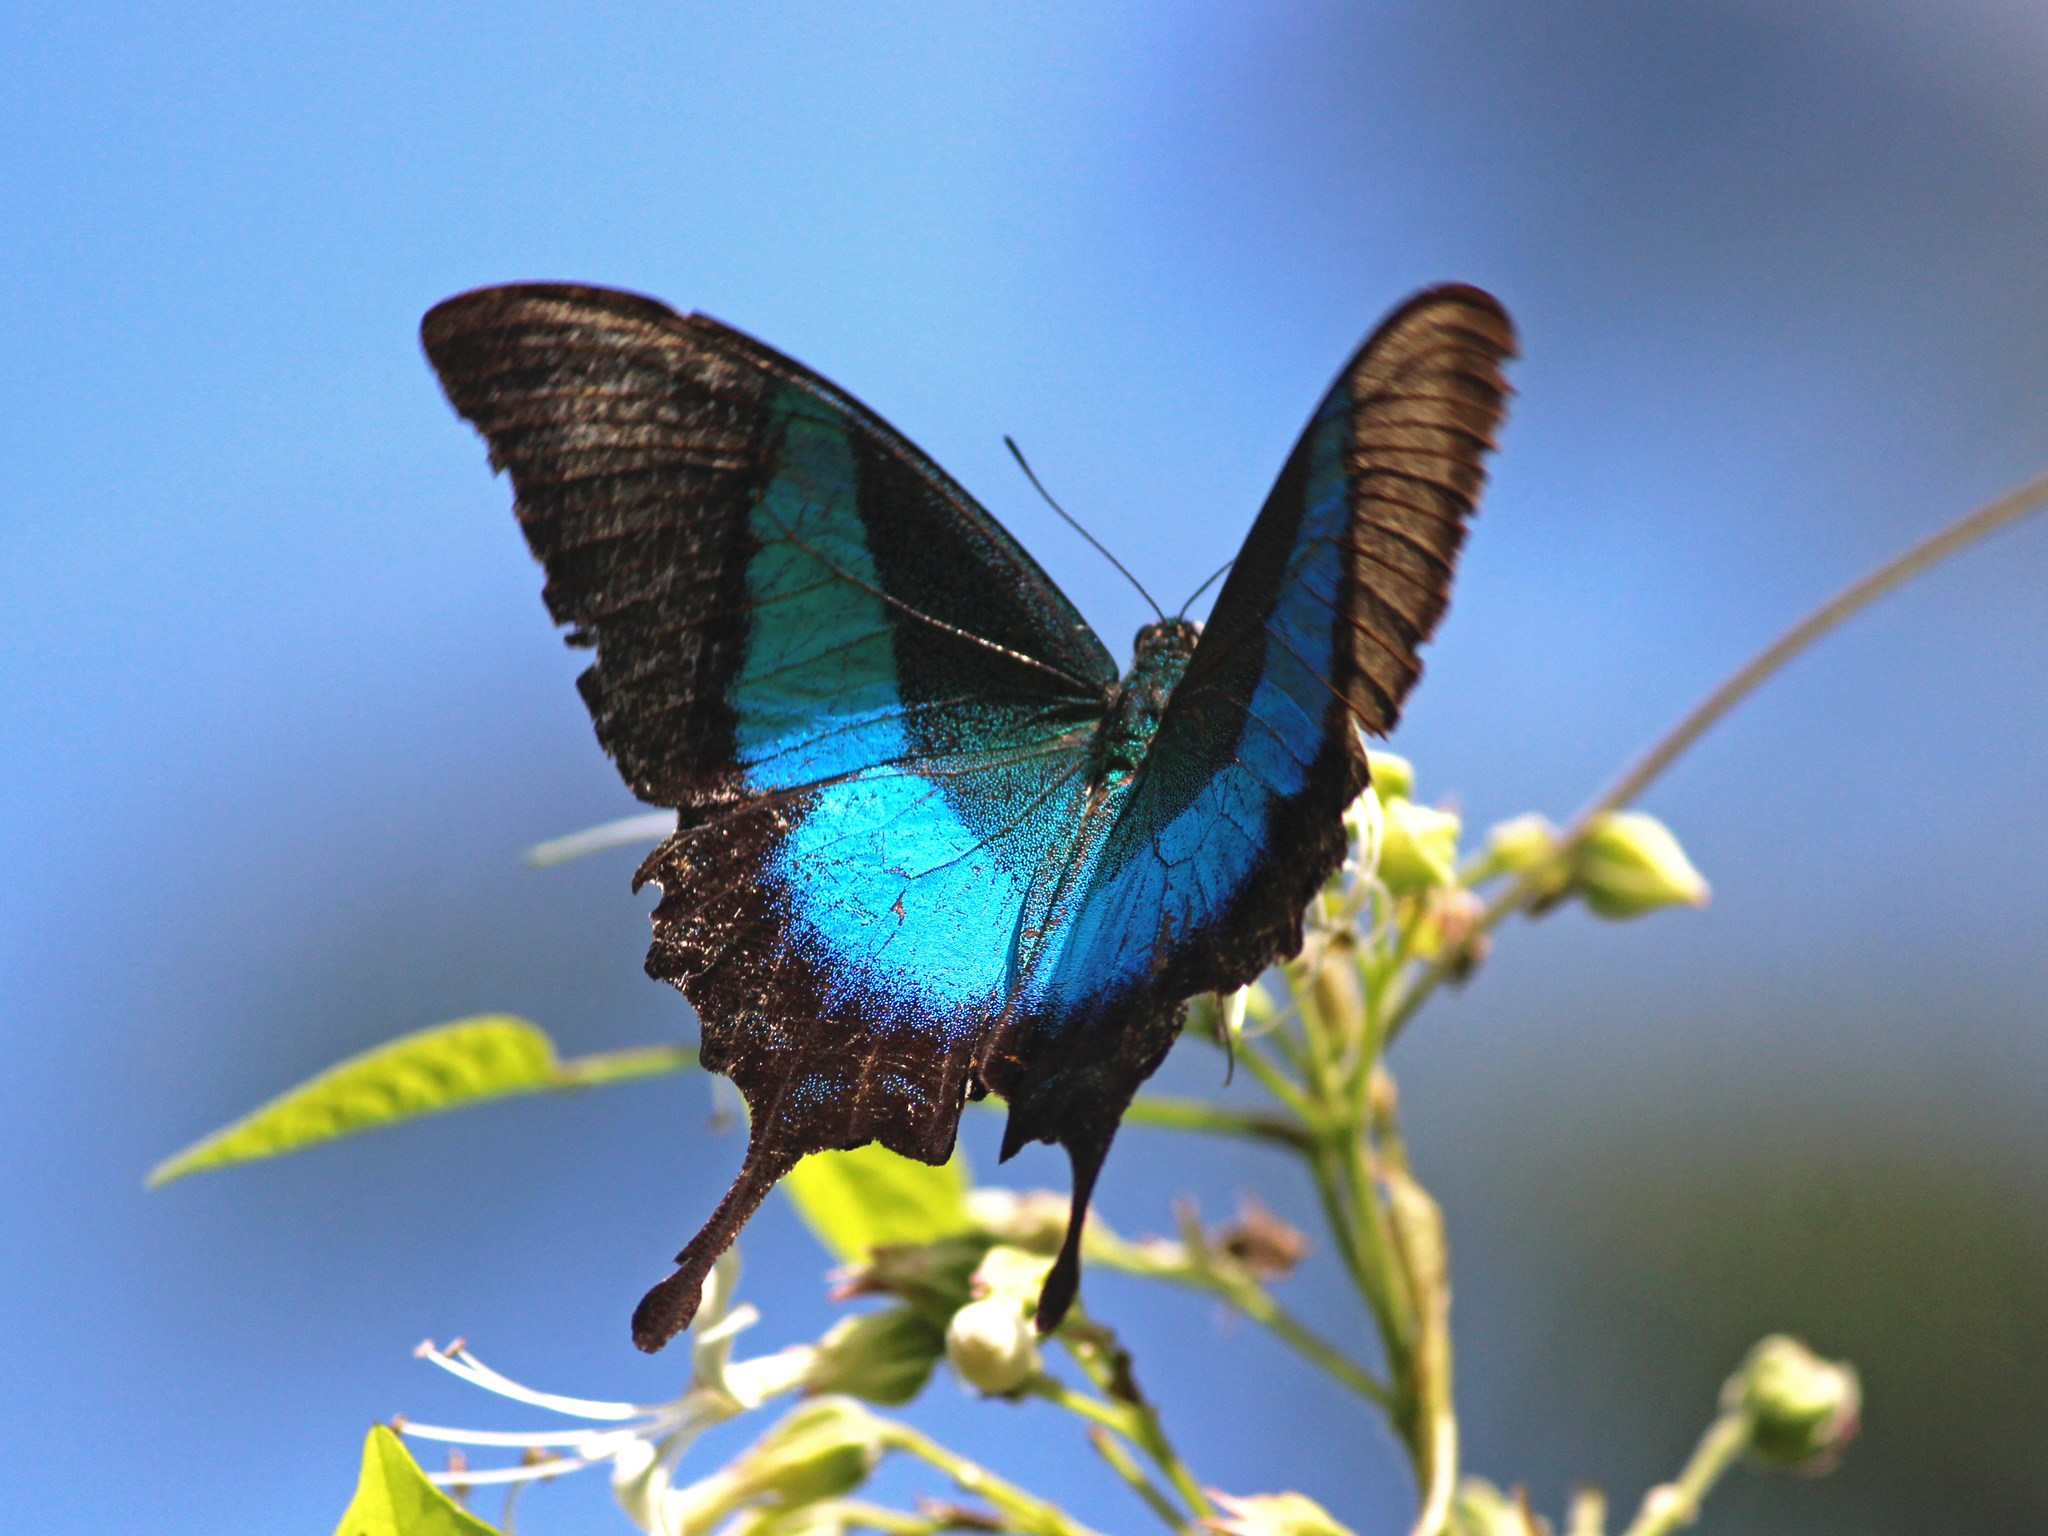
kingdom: Animalia
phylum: Arthropoda
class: Insecta
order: Lepidoptera
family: Papilionidae
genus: Papilio
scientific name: Papilio buddha
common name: Malabar banded peacock
